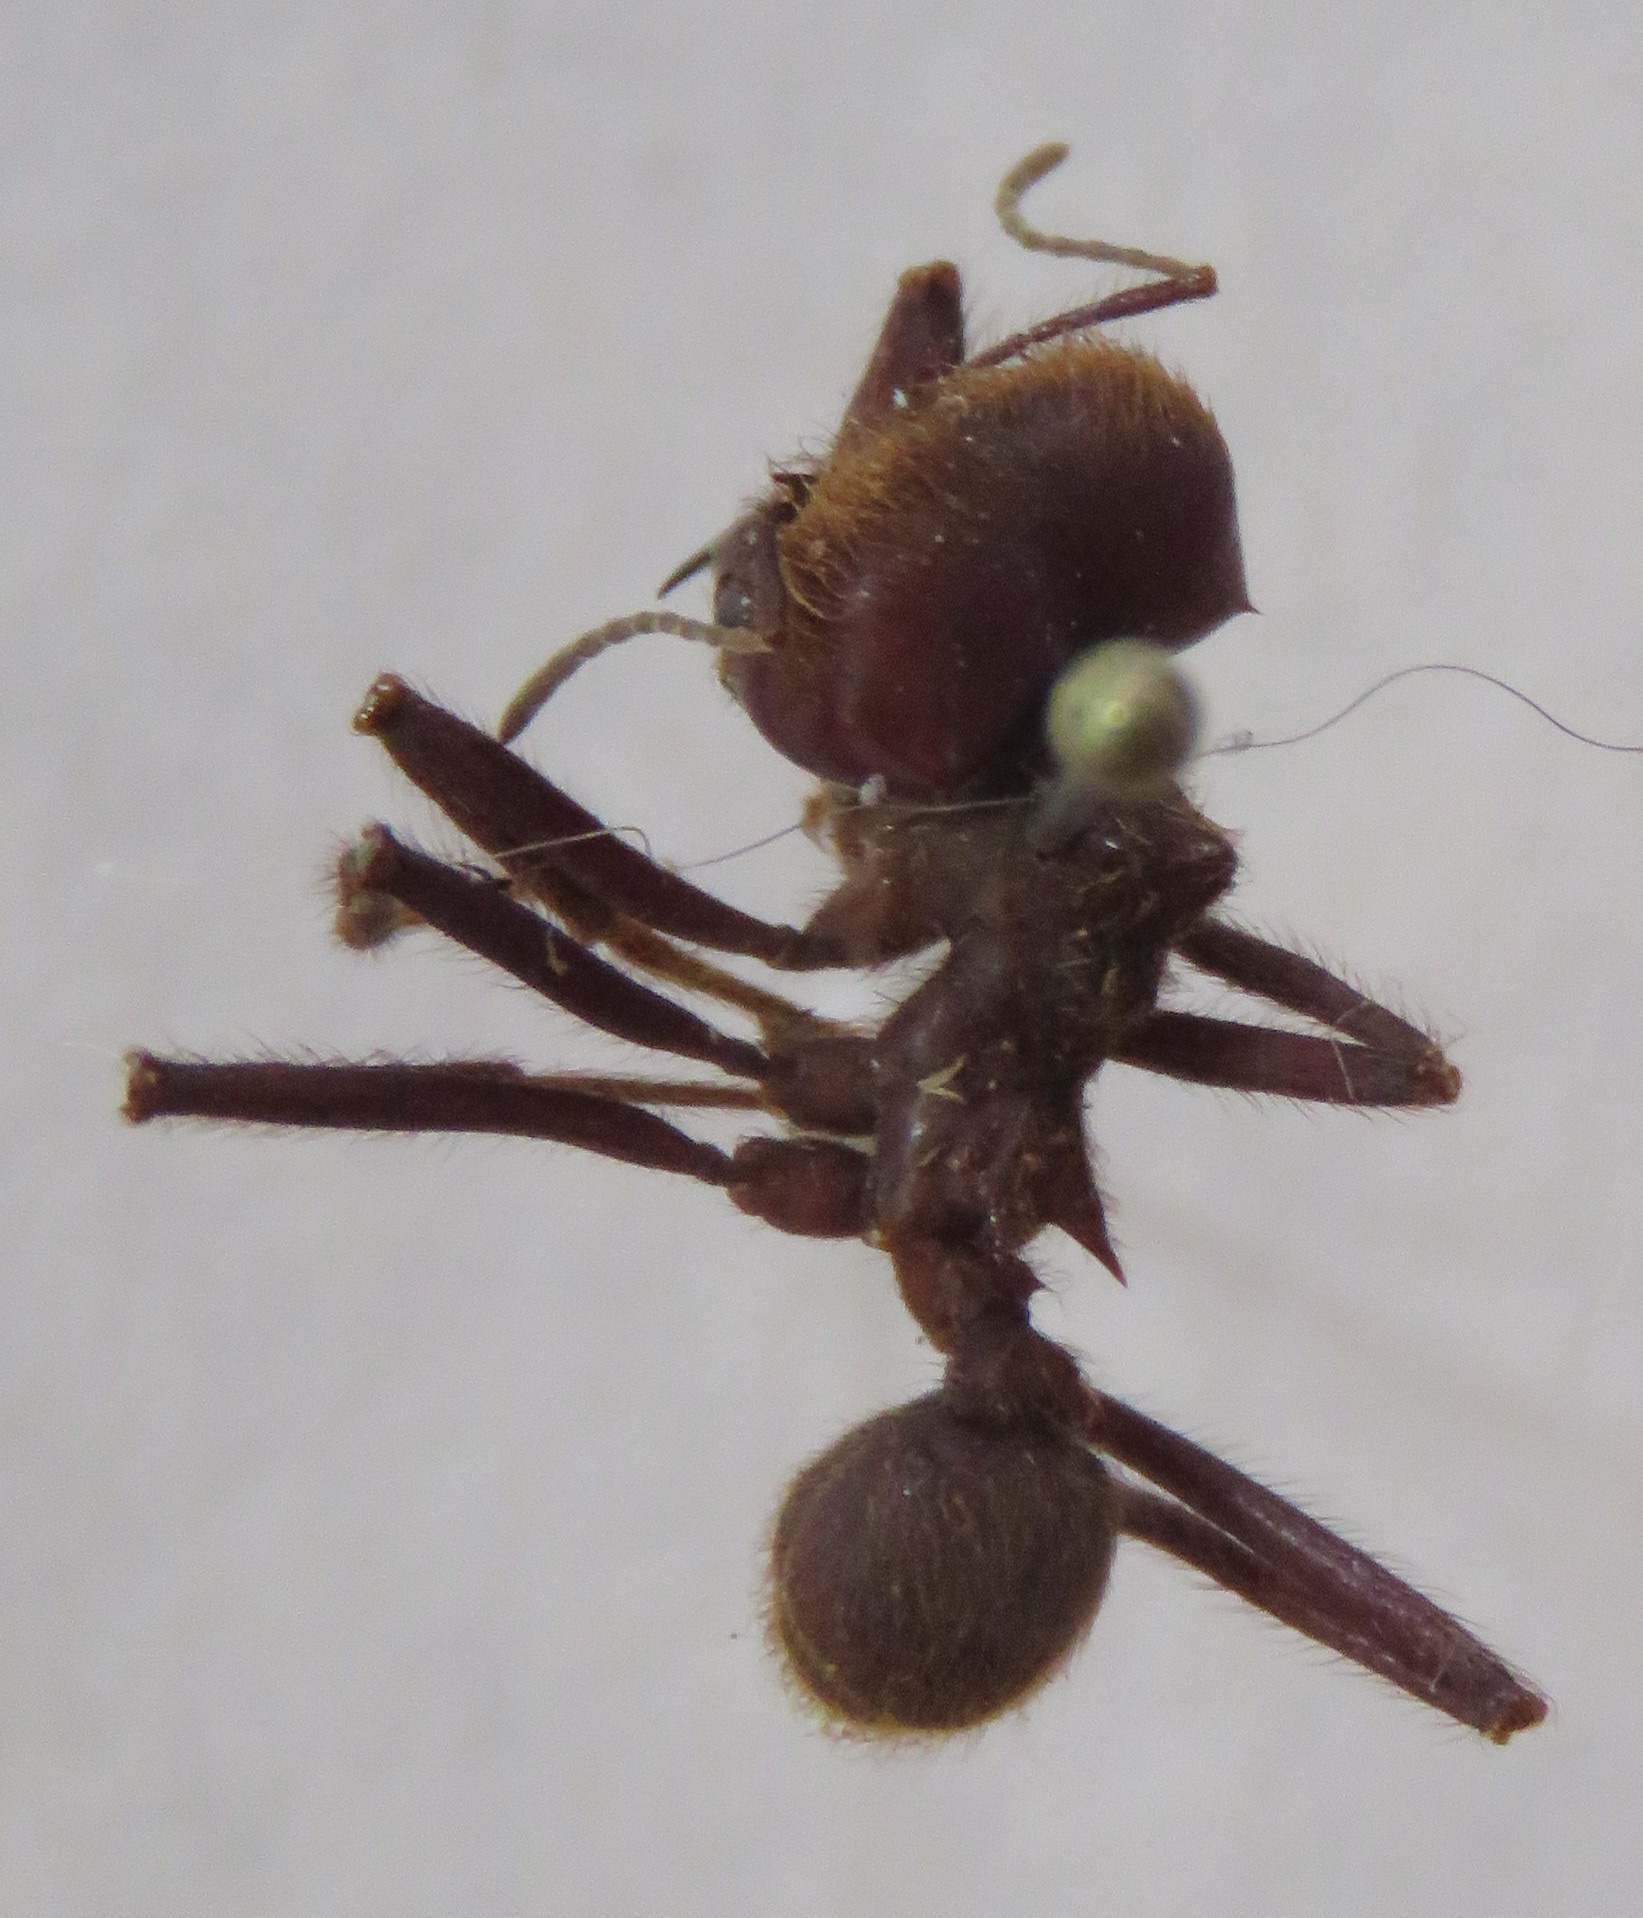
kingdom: Animalia
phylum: Arthropoda
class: Insecta
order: Hymenoptera
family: Formicidae
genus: Atta
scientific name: Atta cephalotes
